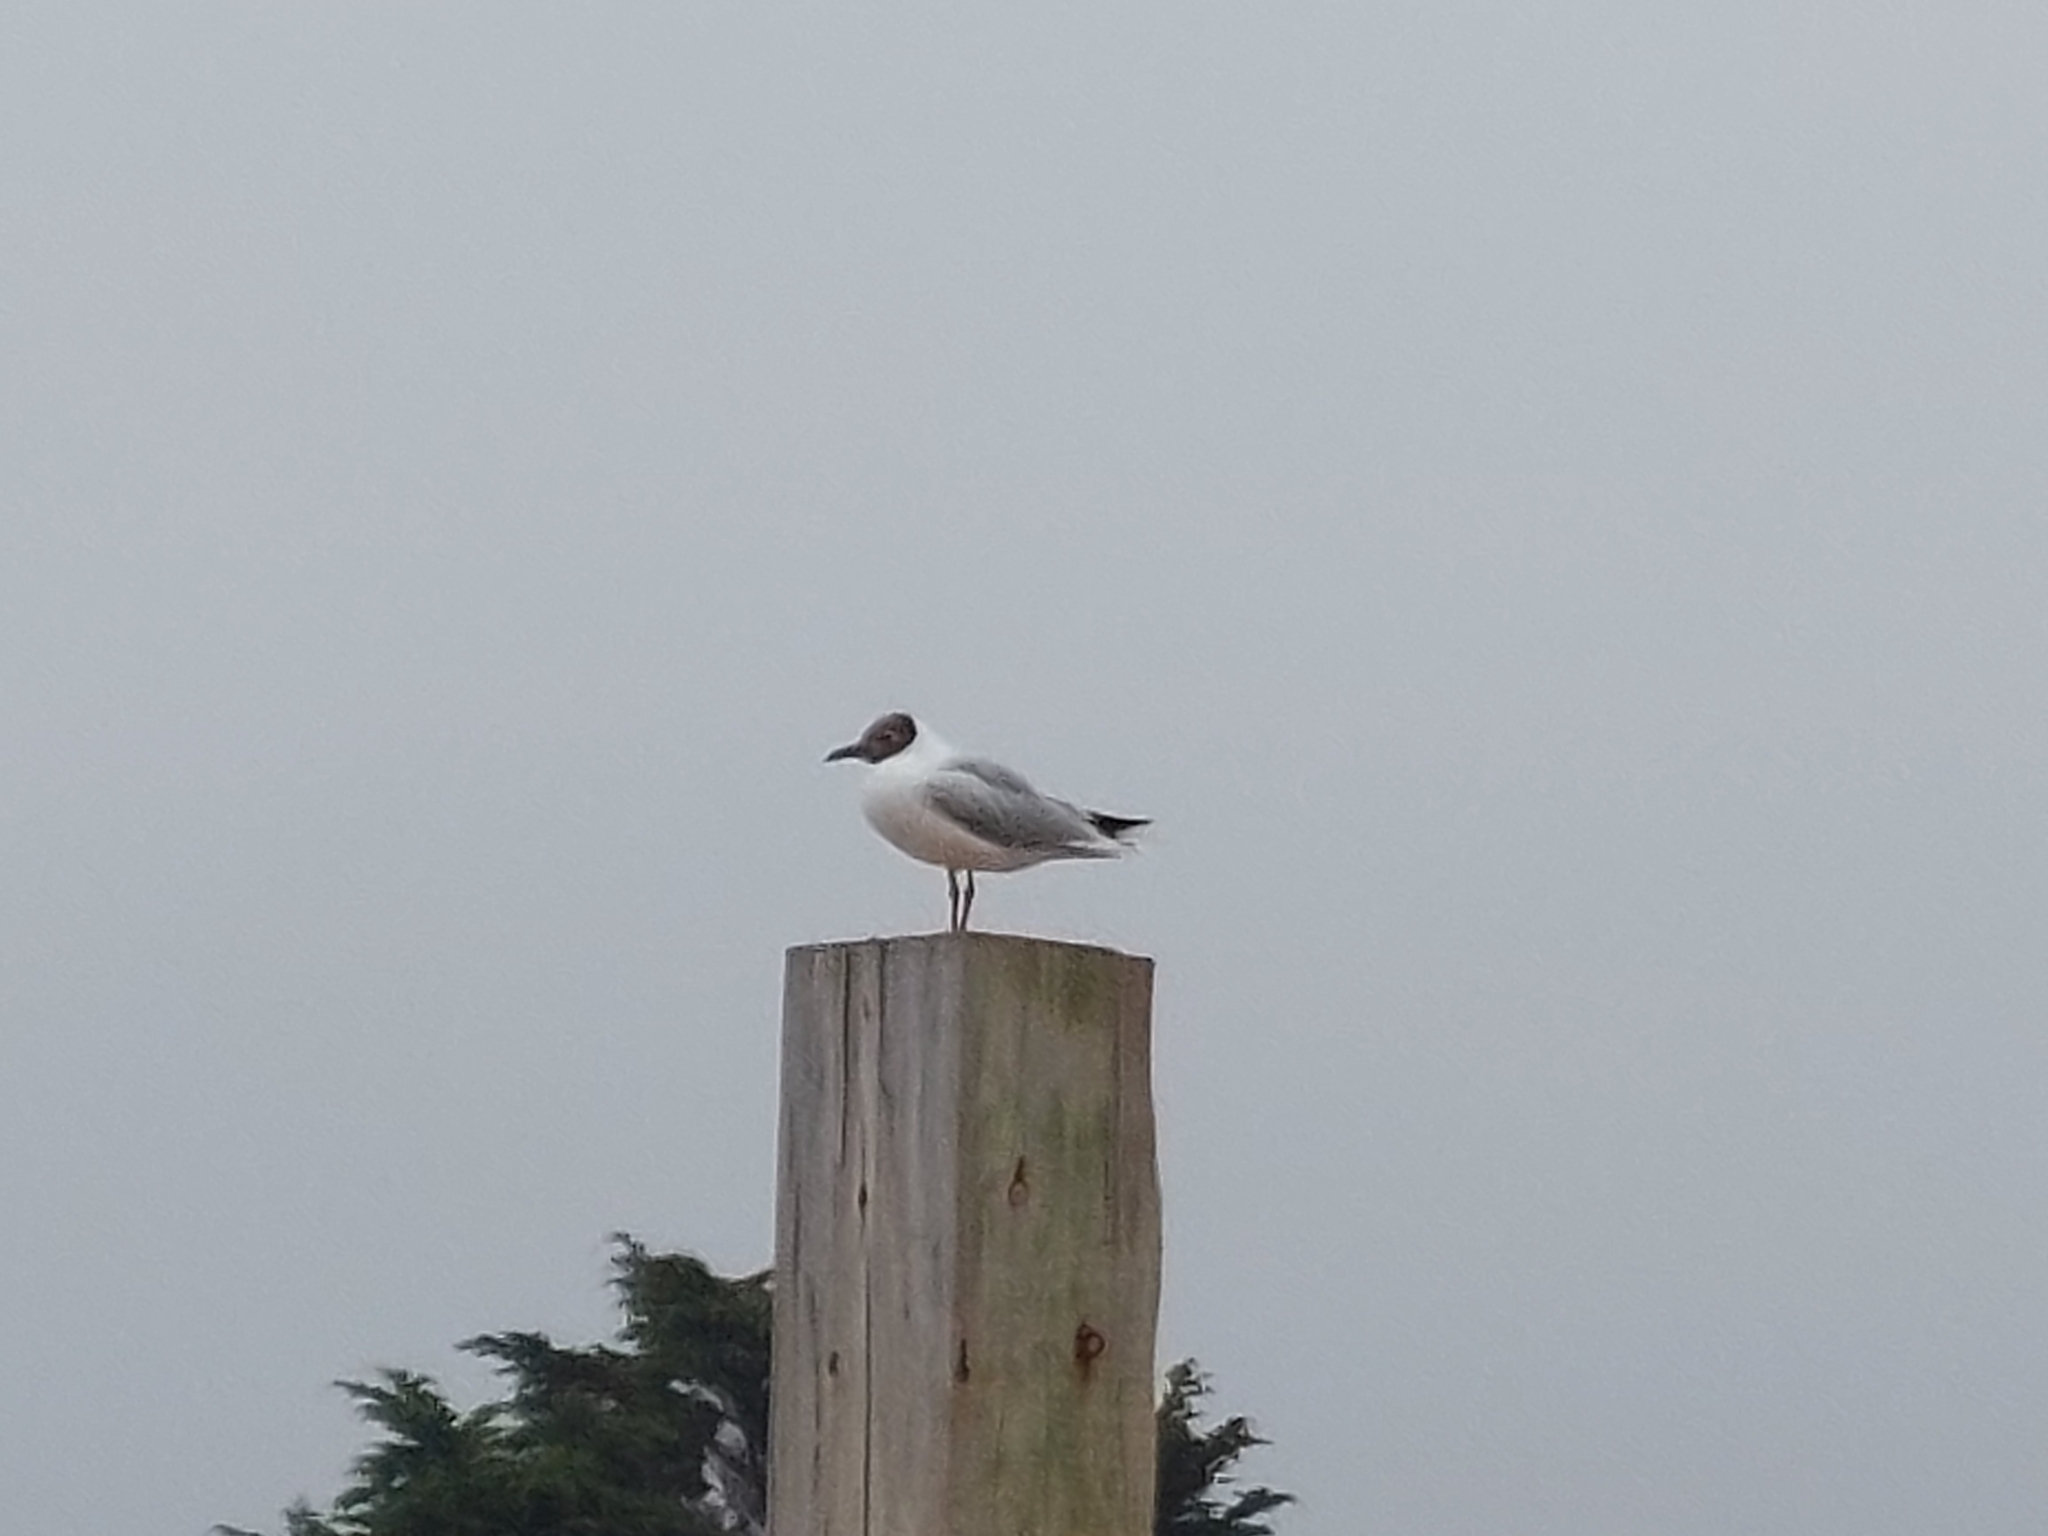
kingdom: Animalia
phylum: Chordata
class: Aves
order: Charadriiformes
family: Laridae
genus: Chroicocephalus
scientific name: Chroicocephalus maculipennis
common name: Brown-hooded gull
